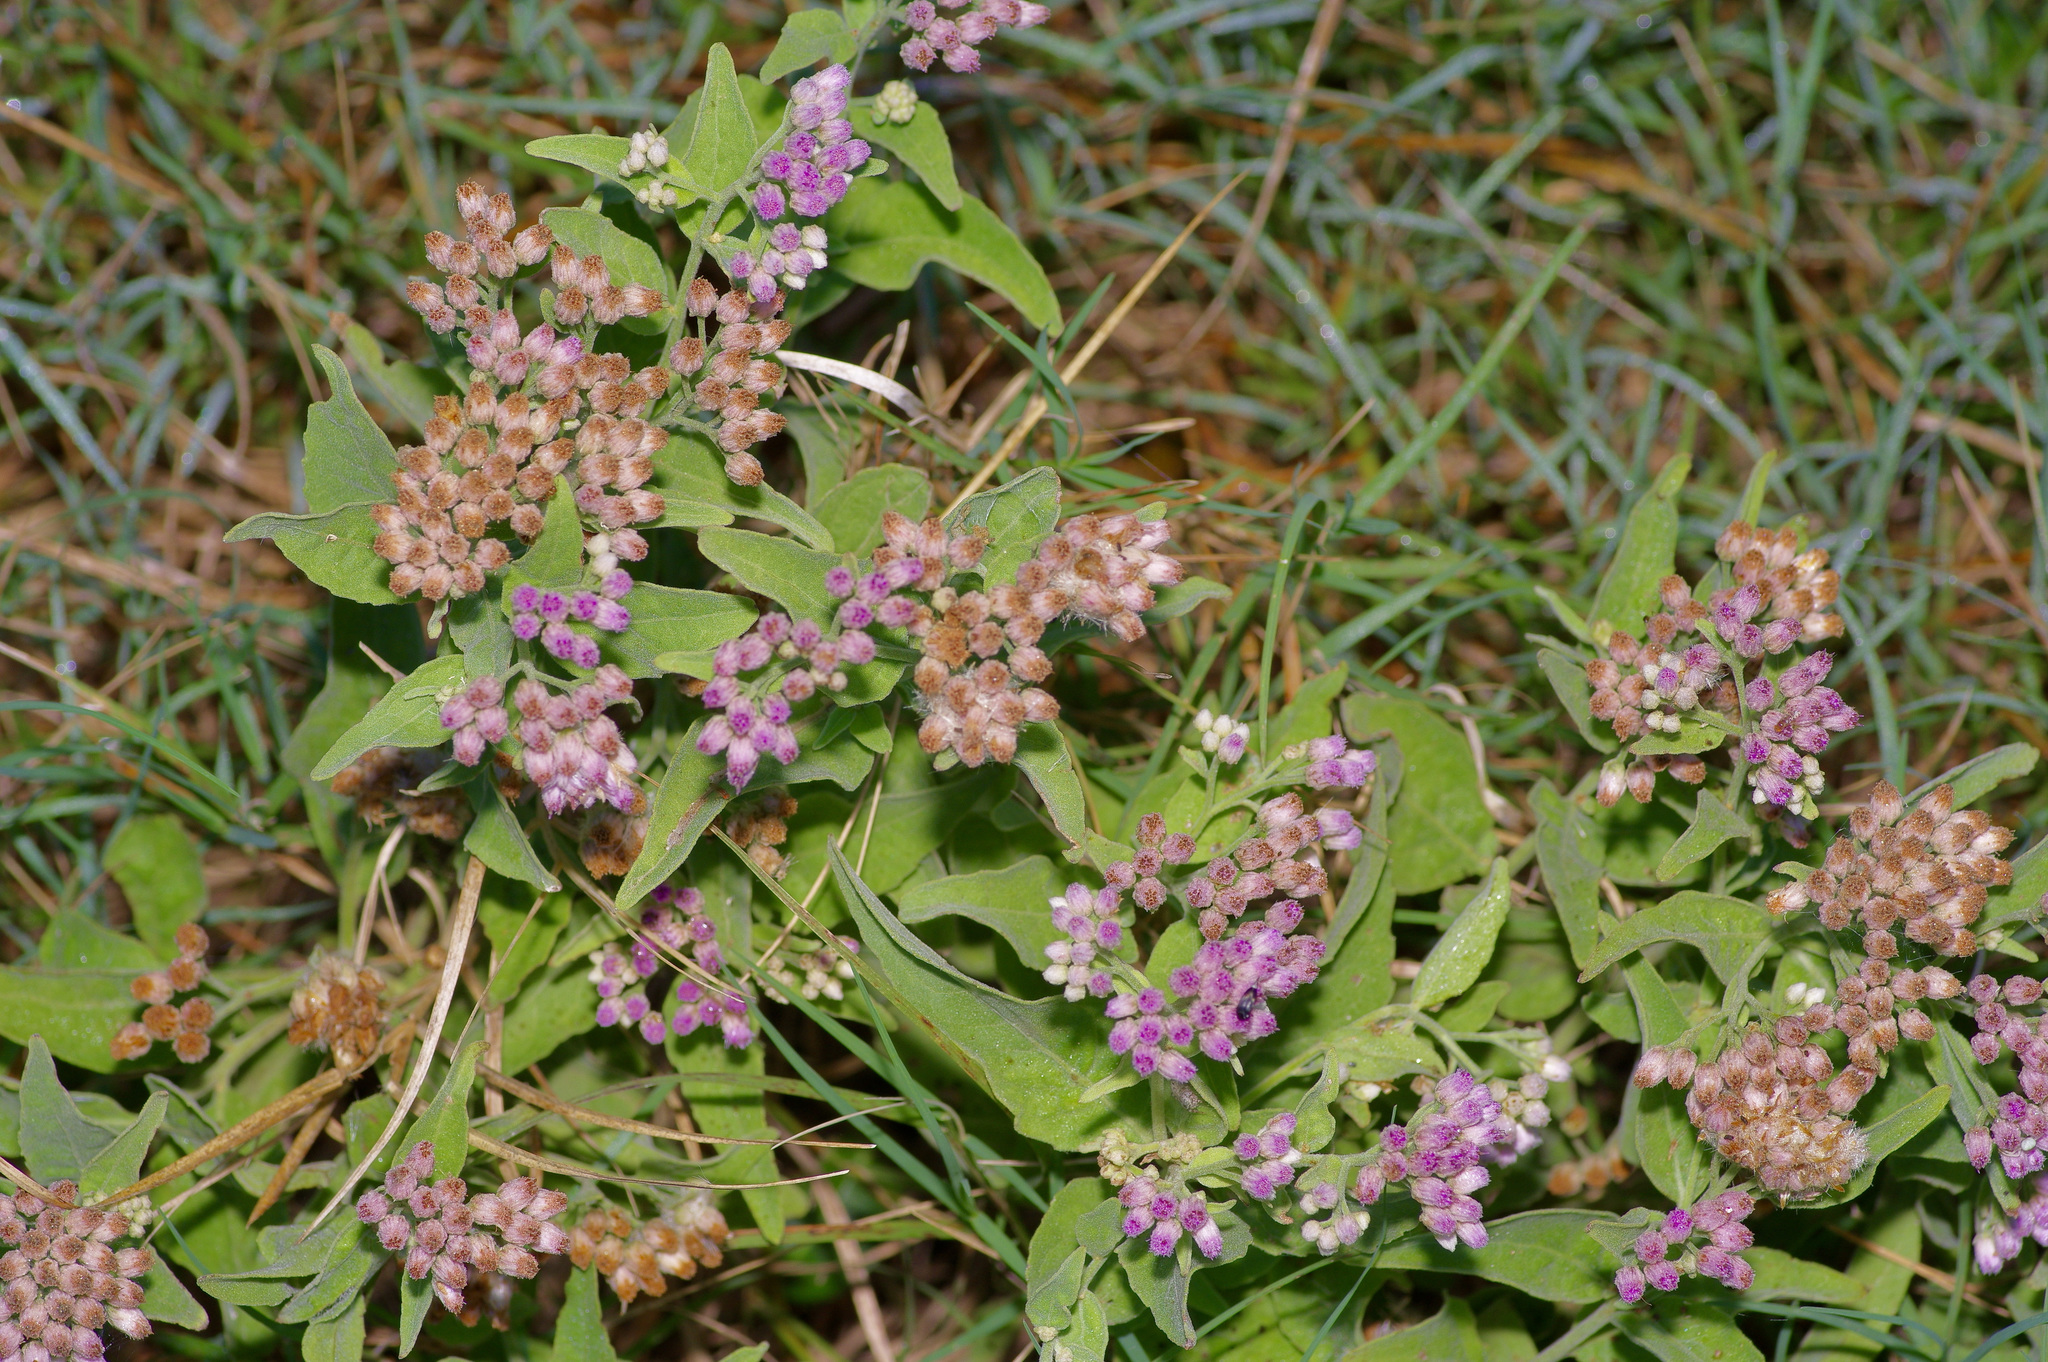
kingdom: Plantae
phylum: Tracheophyta
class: Magnoliopsida
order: Asterales
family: Asteraceae
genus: Pluchea
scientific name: Pluchea odorata
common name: Saltmarsh fleabane
